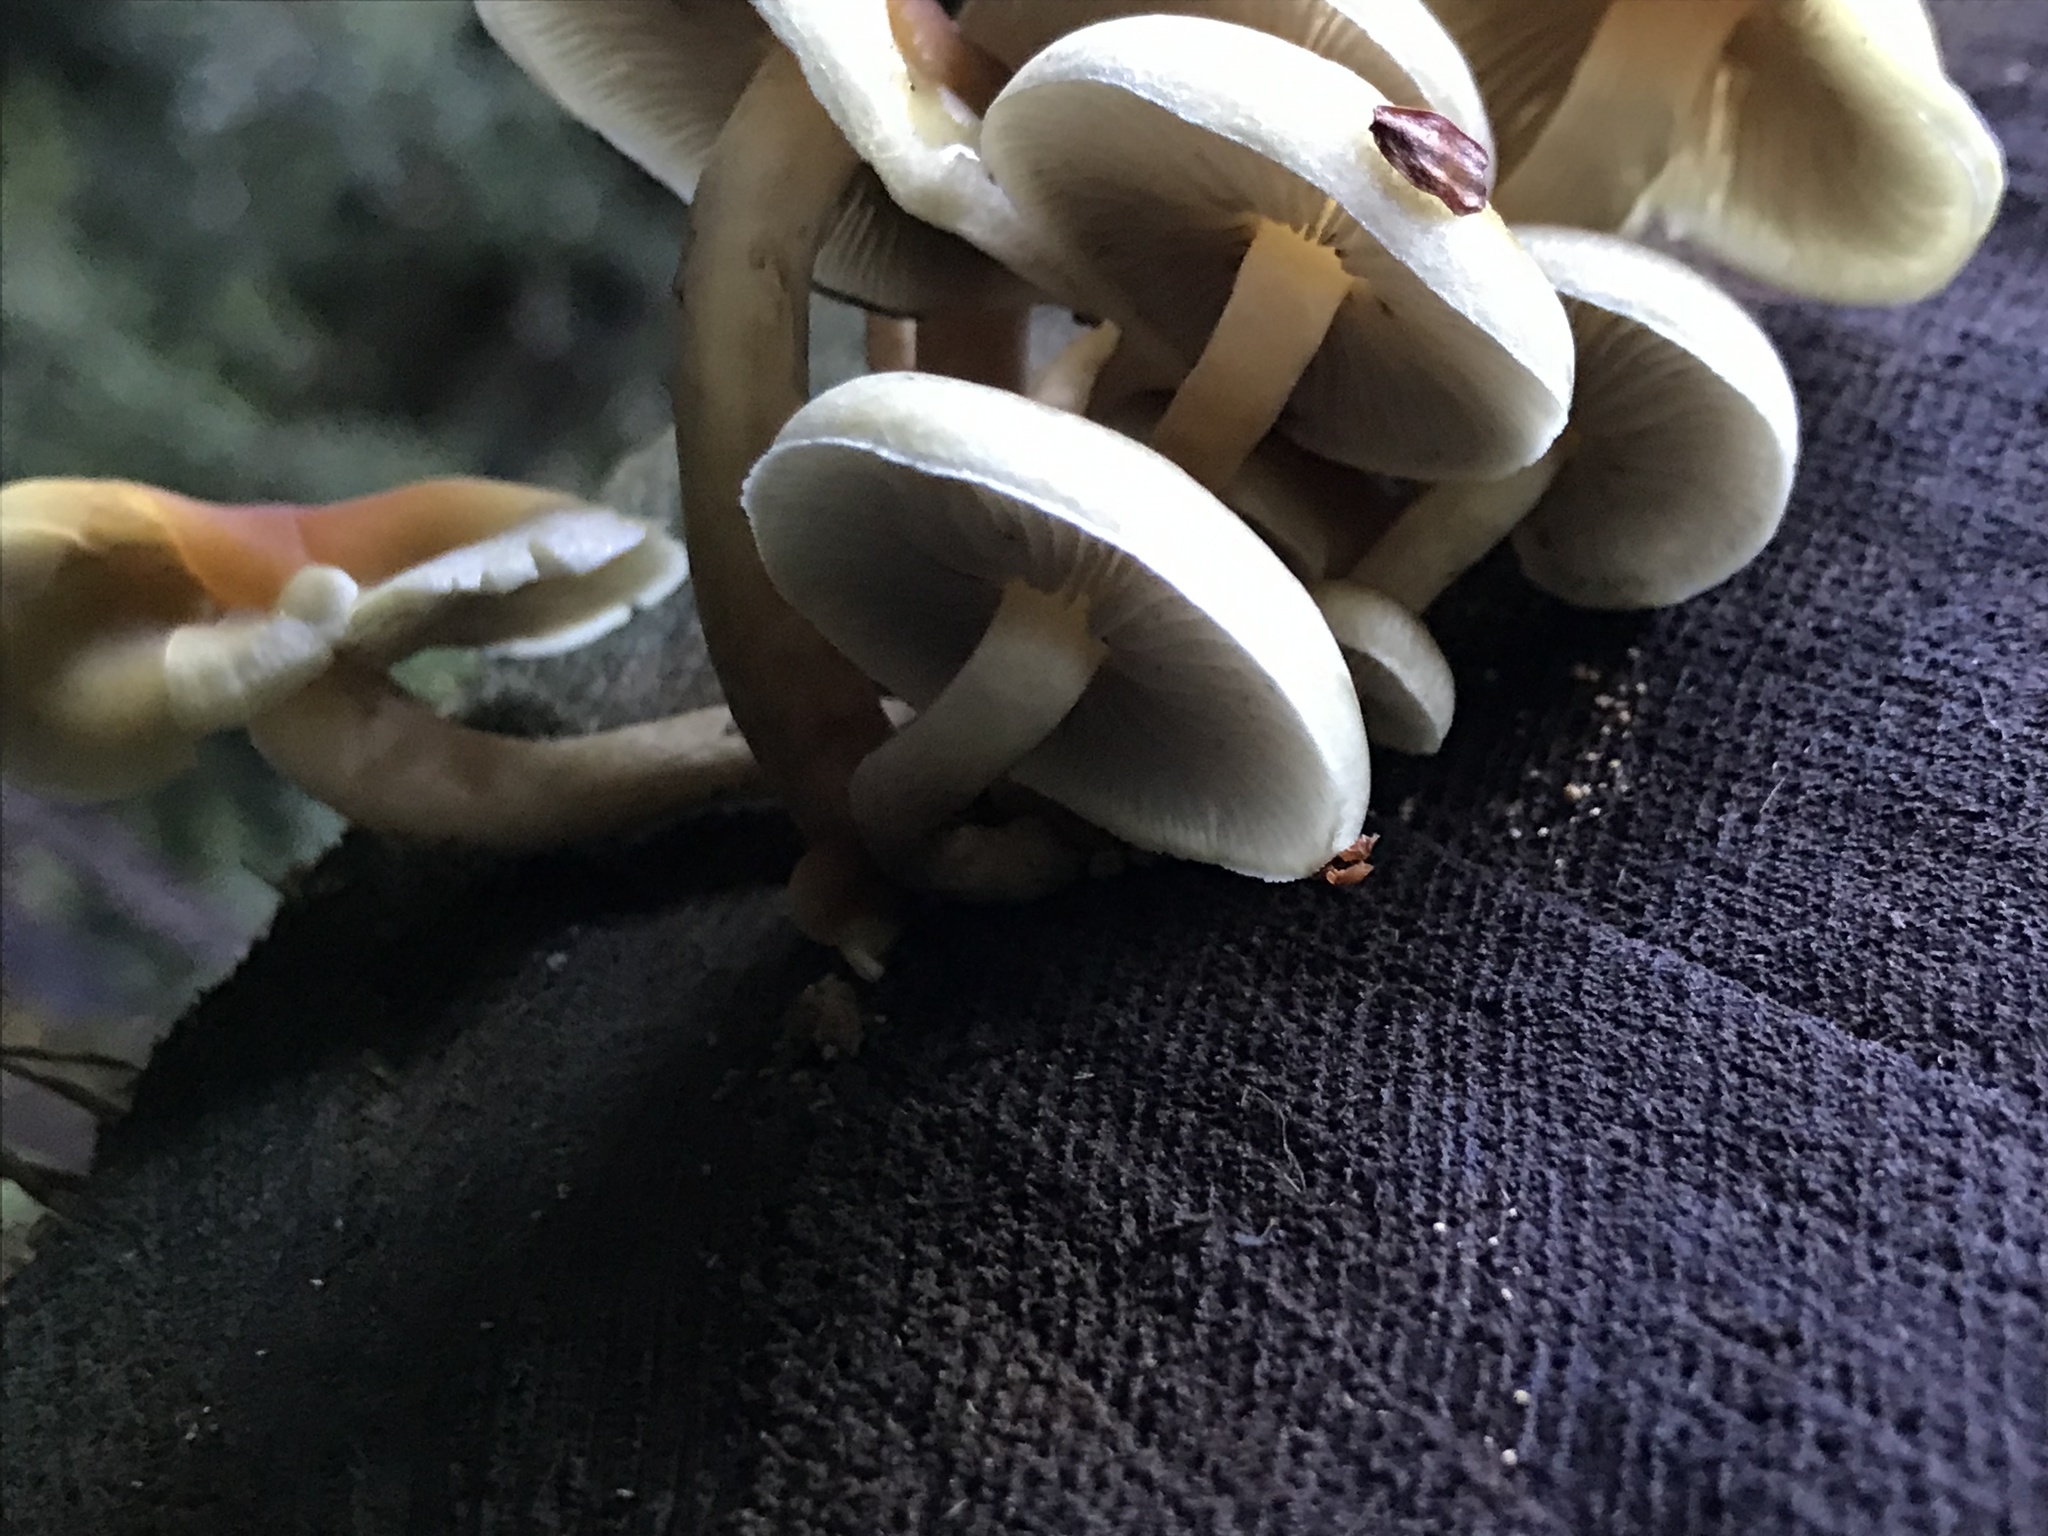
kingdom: Fungi
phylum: Basidiomycota
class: Agaricomycetes
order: Agaricales
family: Strophariaceae
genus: Hypholoma
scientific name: Hypholoma capnoides
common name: Conifer tuft
